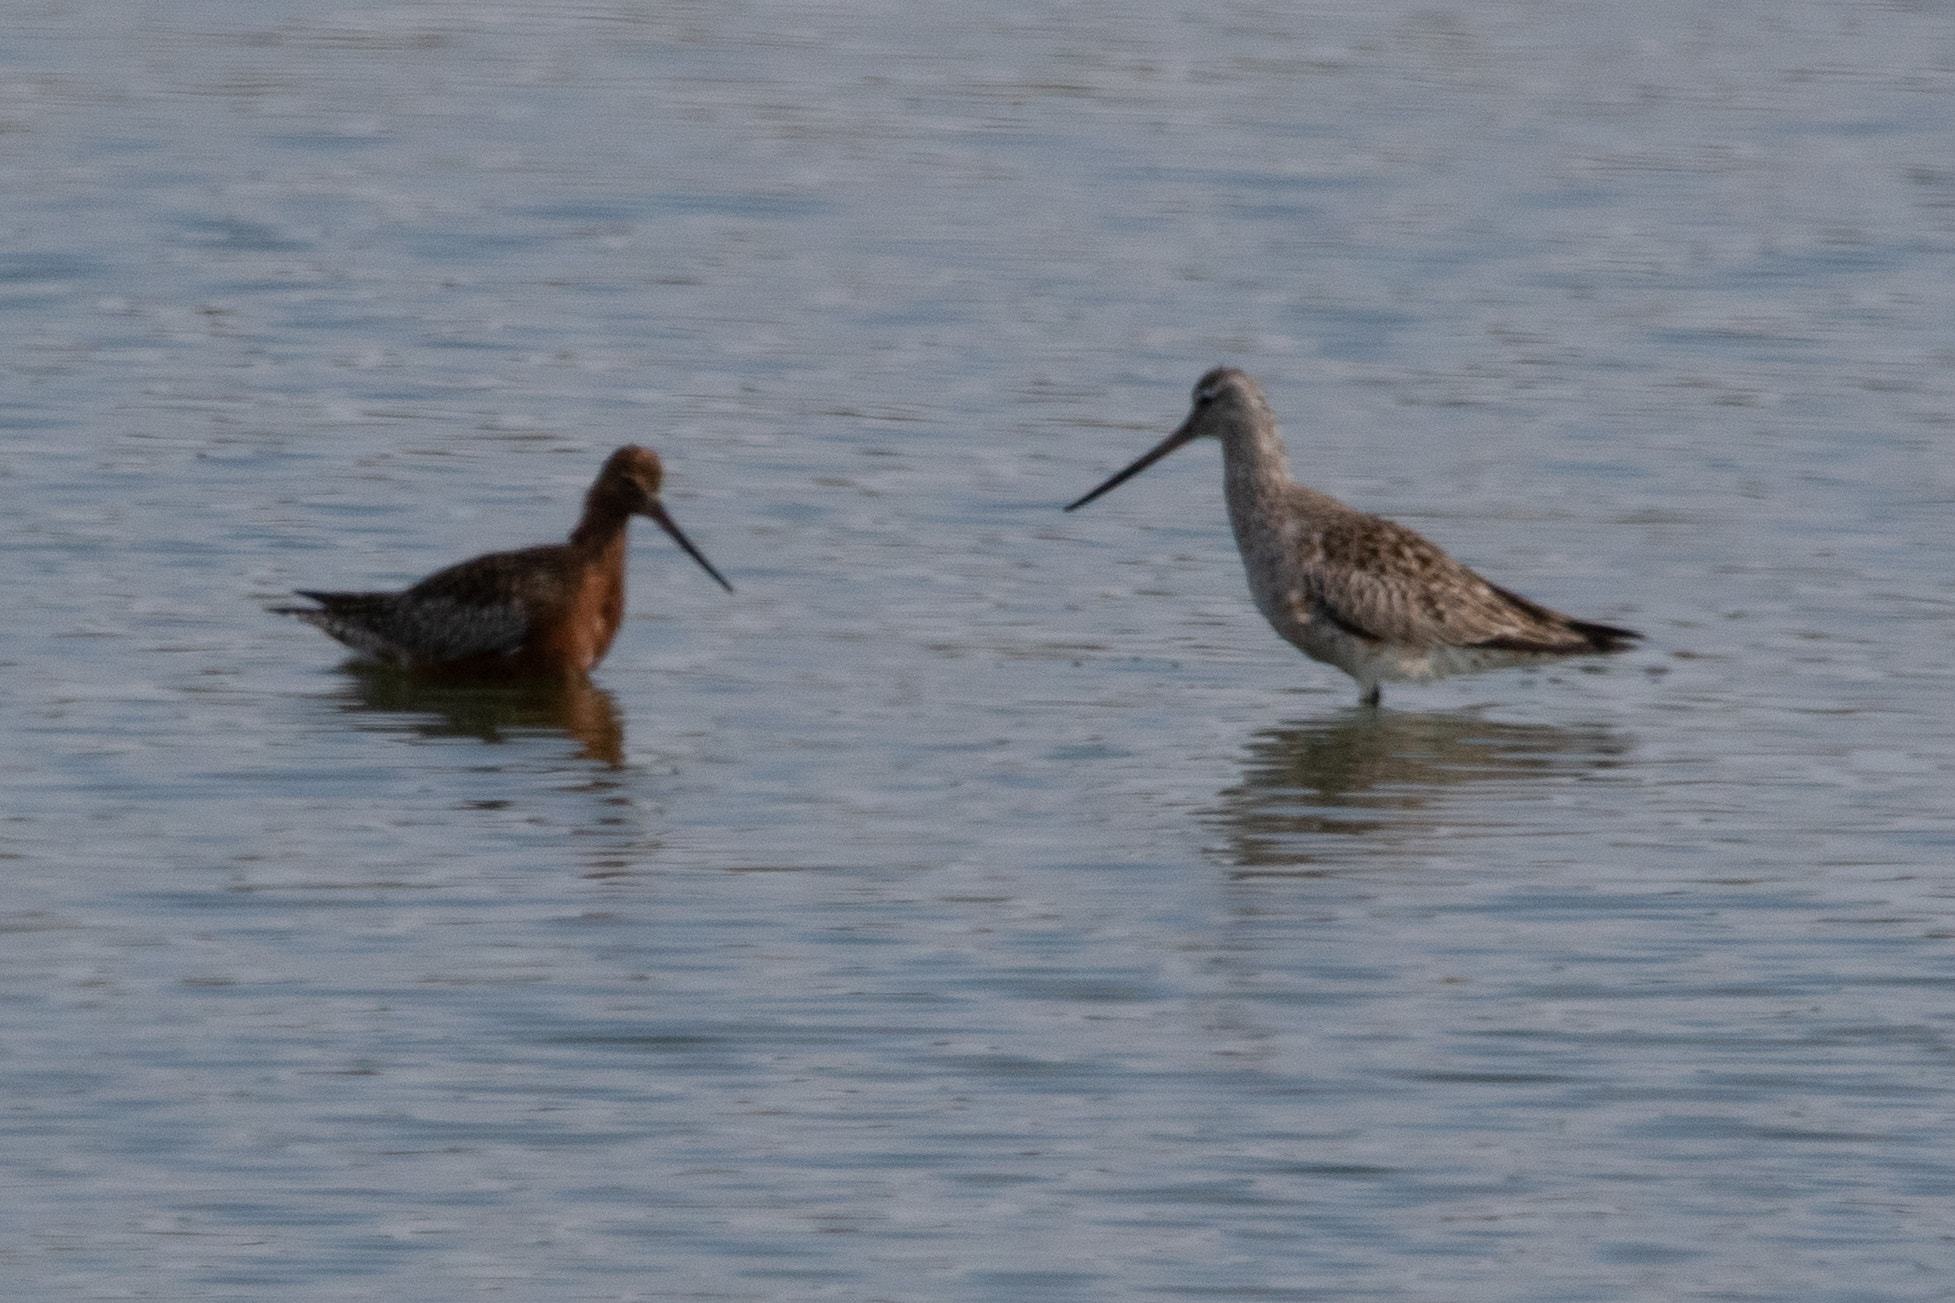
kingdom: Animalia
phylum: Chordata
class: Aves
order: Charadriiformes
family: Scolopacidae
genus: Limosa
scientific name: Limosa lapponica
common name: Bar-tailed godwit
